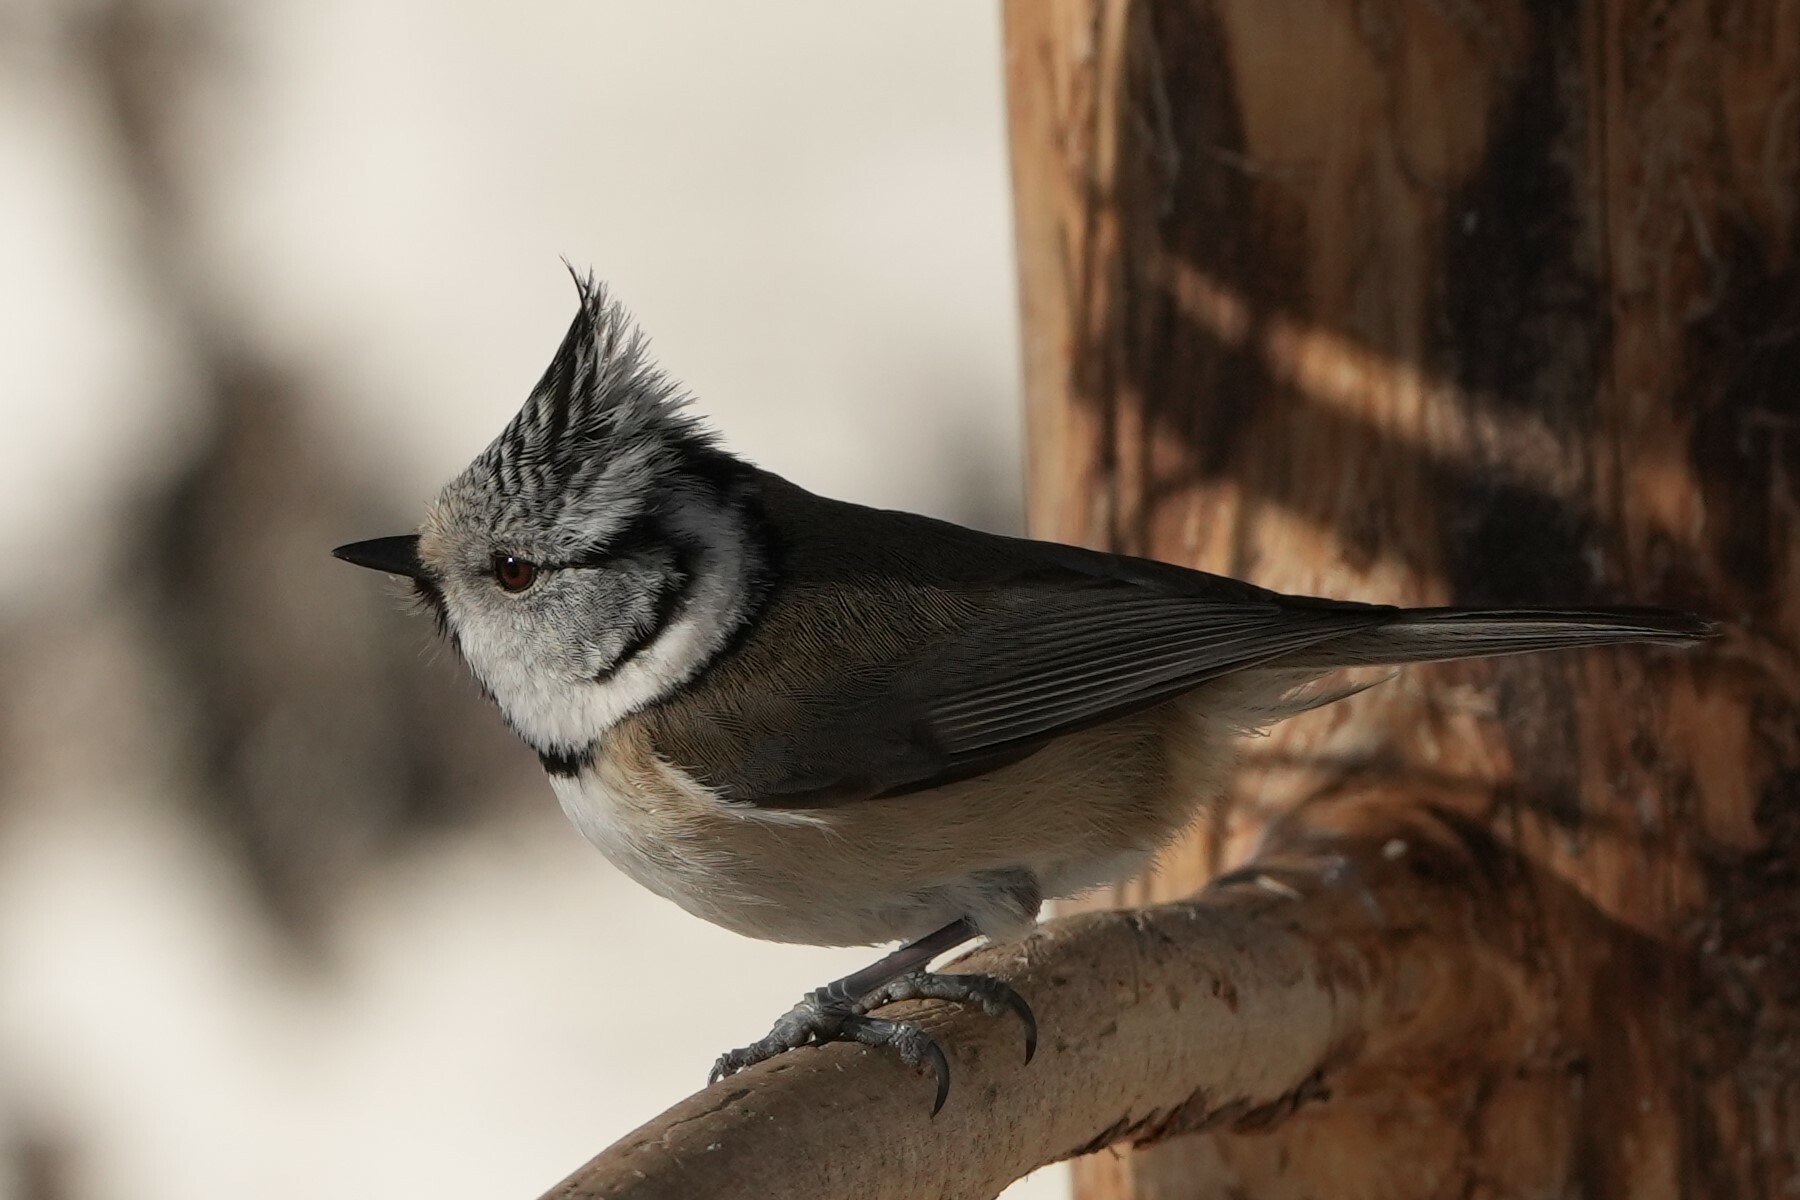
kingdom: Animalia
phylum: Chordata
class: Aves
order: Passeriformes
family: Paridae
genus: Lophophanes
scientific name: Lophophanes cristatus
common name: European crested tit
